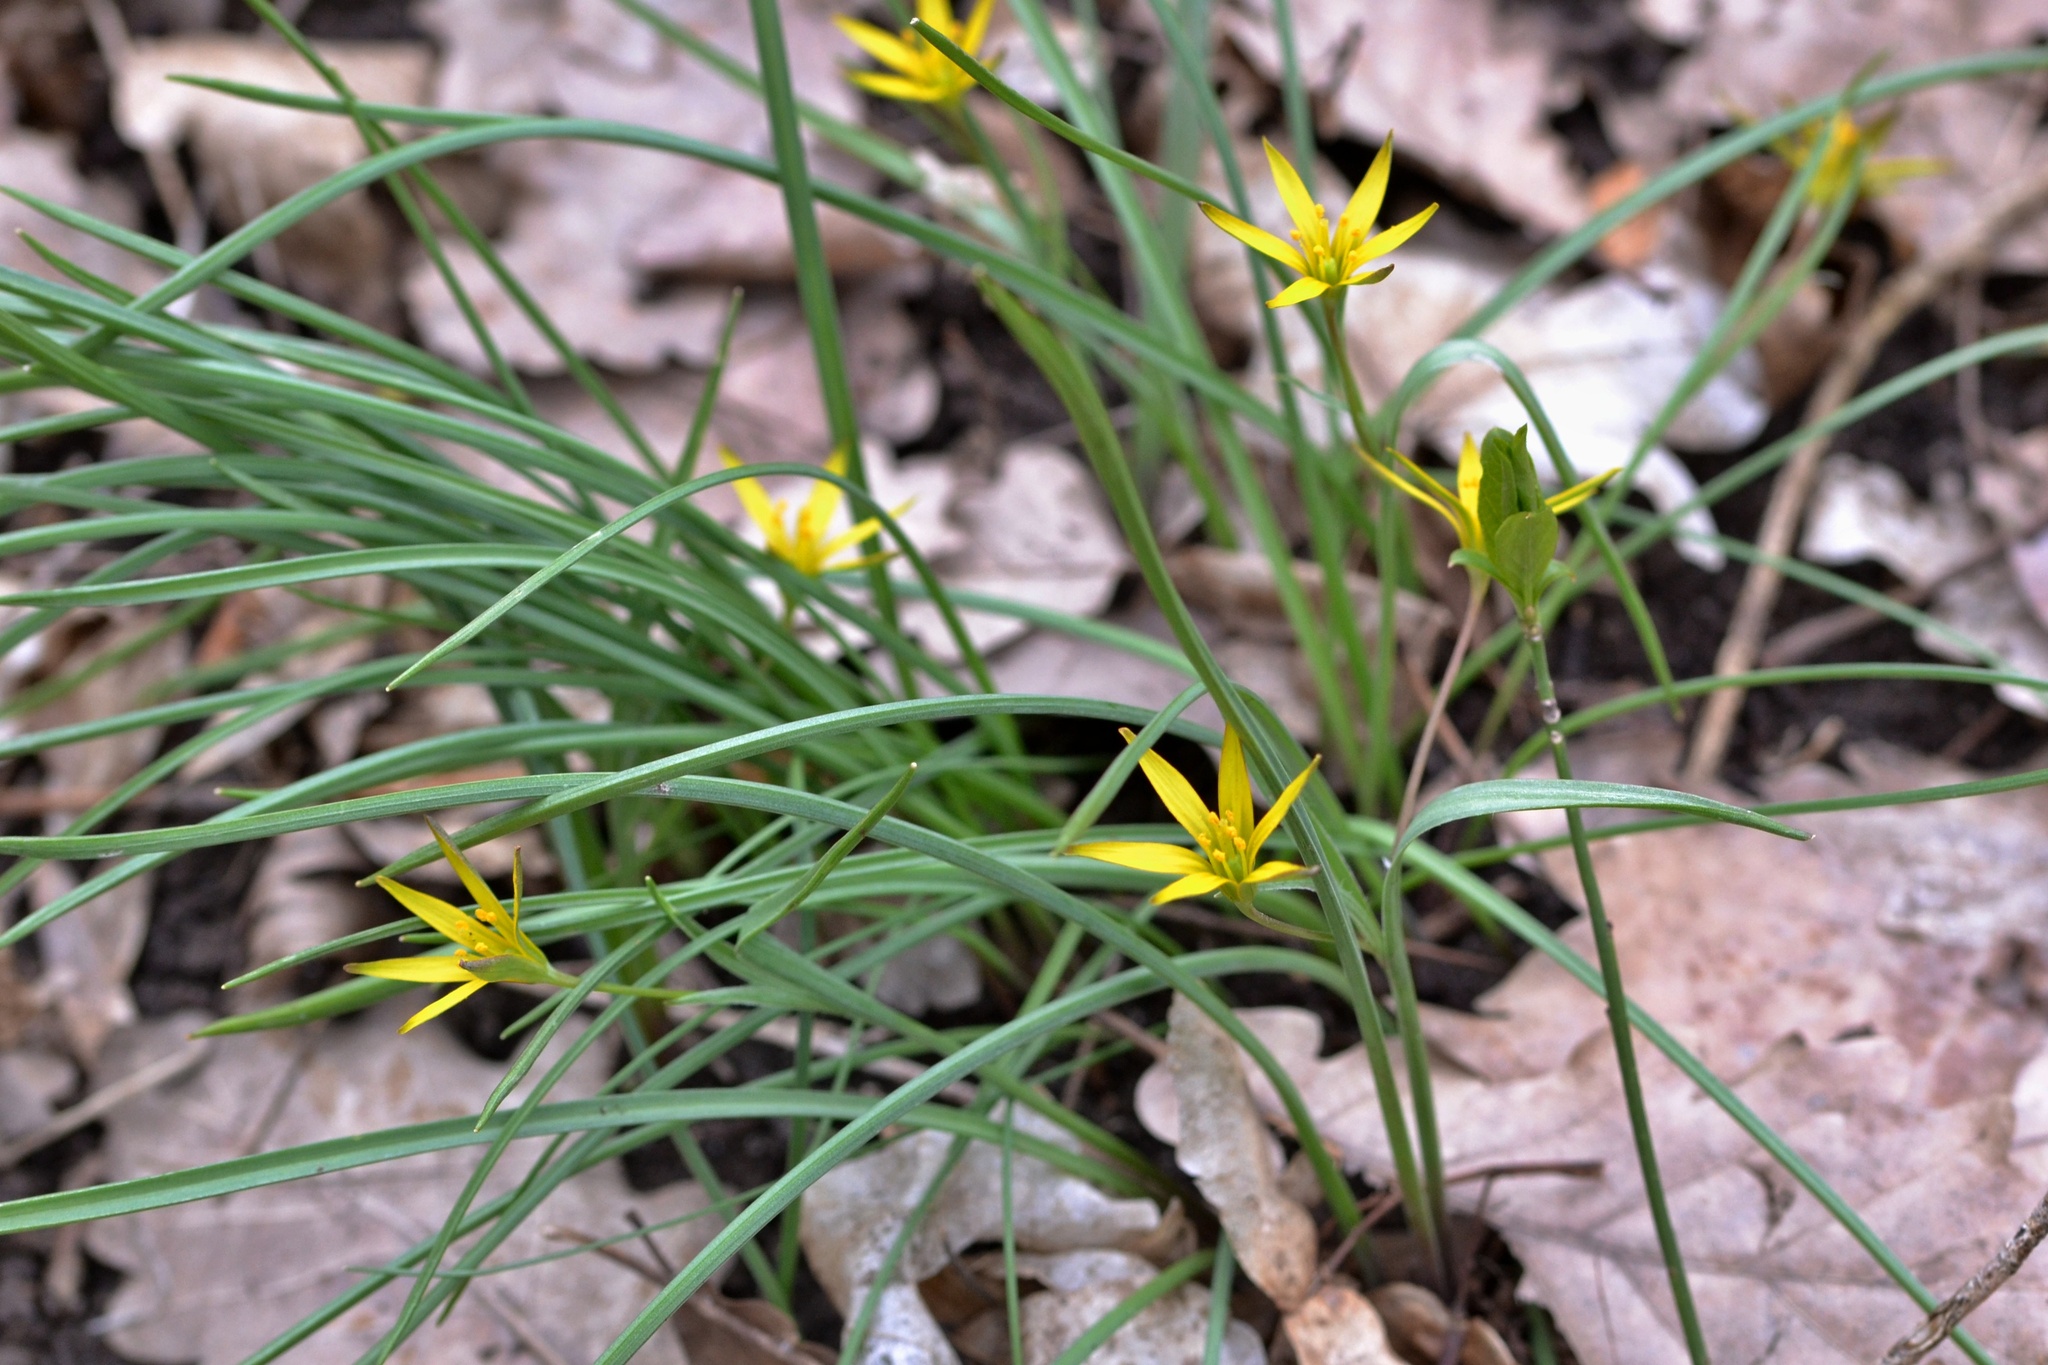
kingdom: Plantae
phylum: Tracheophyta
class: Liliopsida
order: Liliales
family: Liliaceae
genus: Gagea
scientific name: Gagea pratensis
